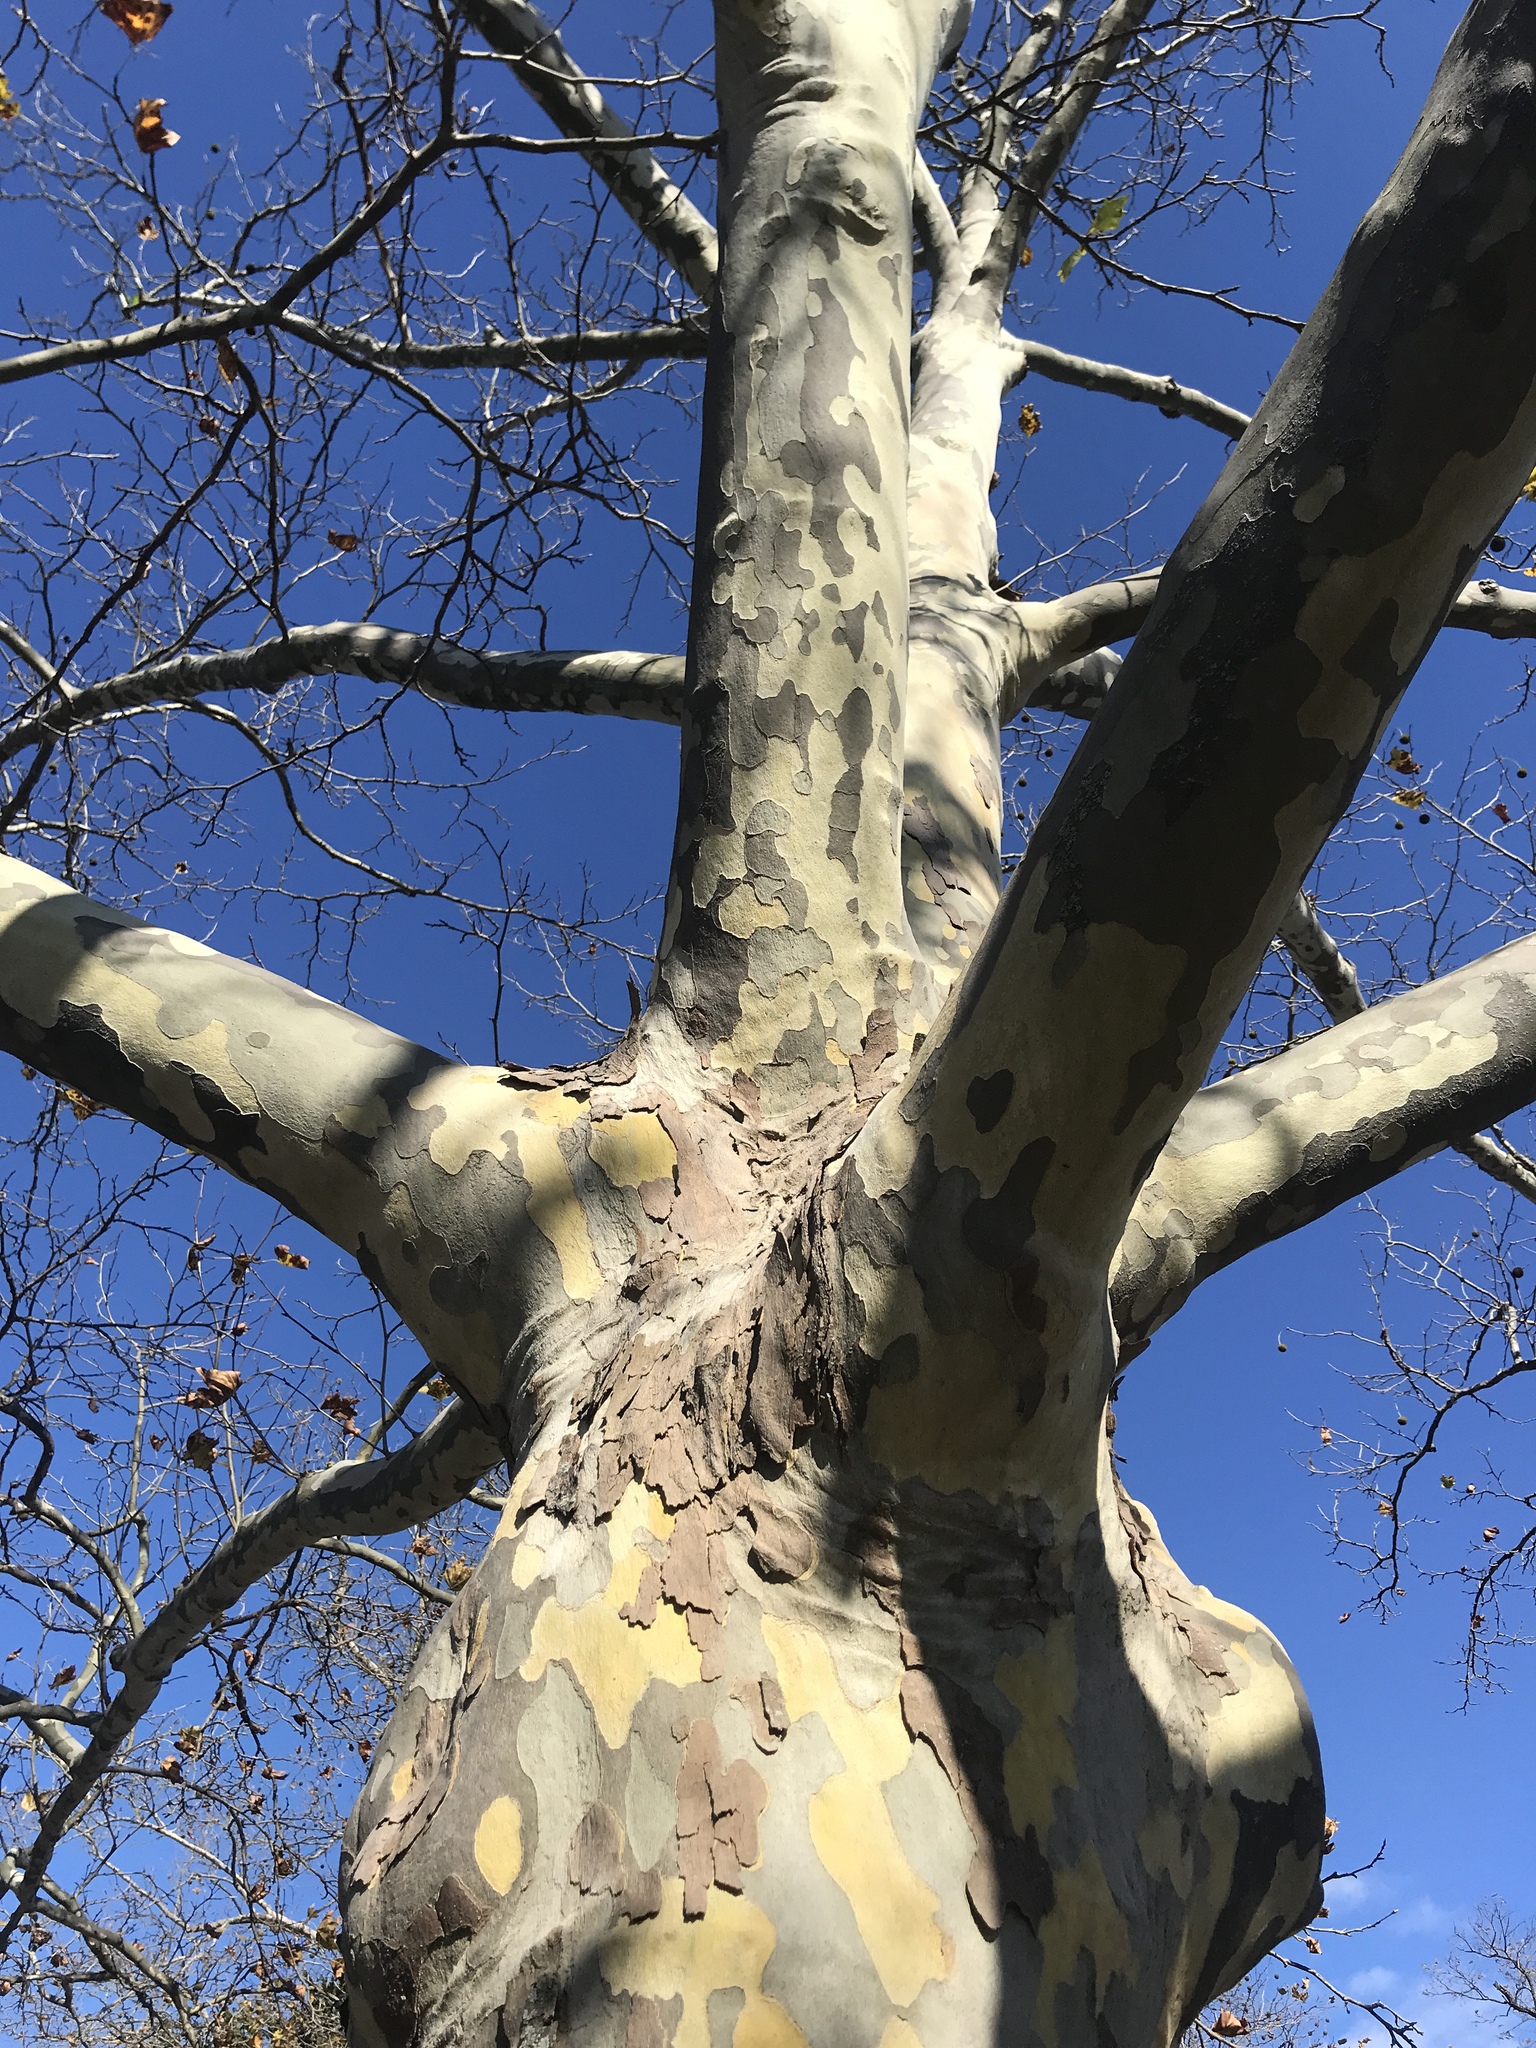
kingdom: Plantae
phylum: Tracheophyta
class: Magnoliopsida
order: Proteales
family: Platanaceae
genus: Platanus
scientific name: Platanus occidentalis
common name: American sycamore
